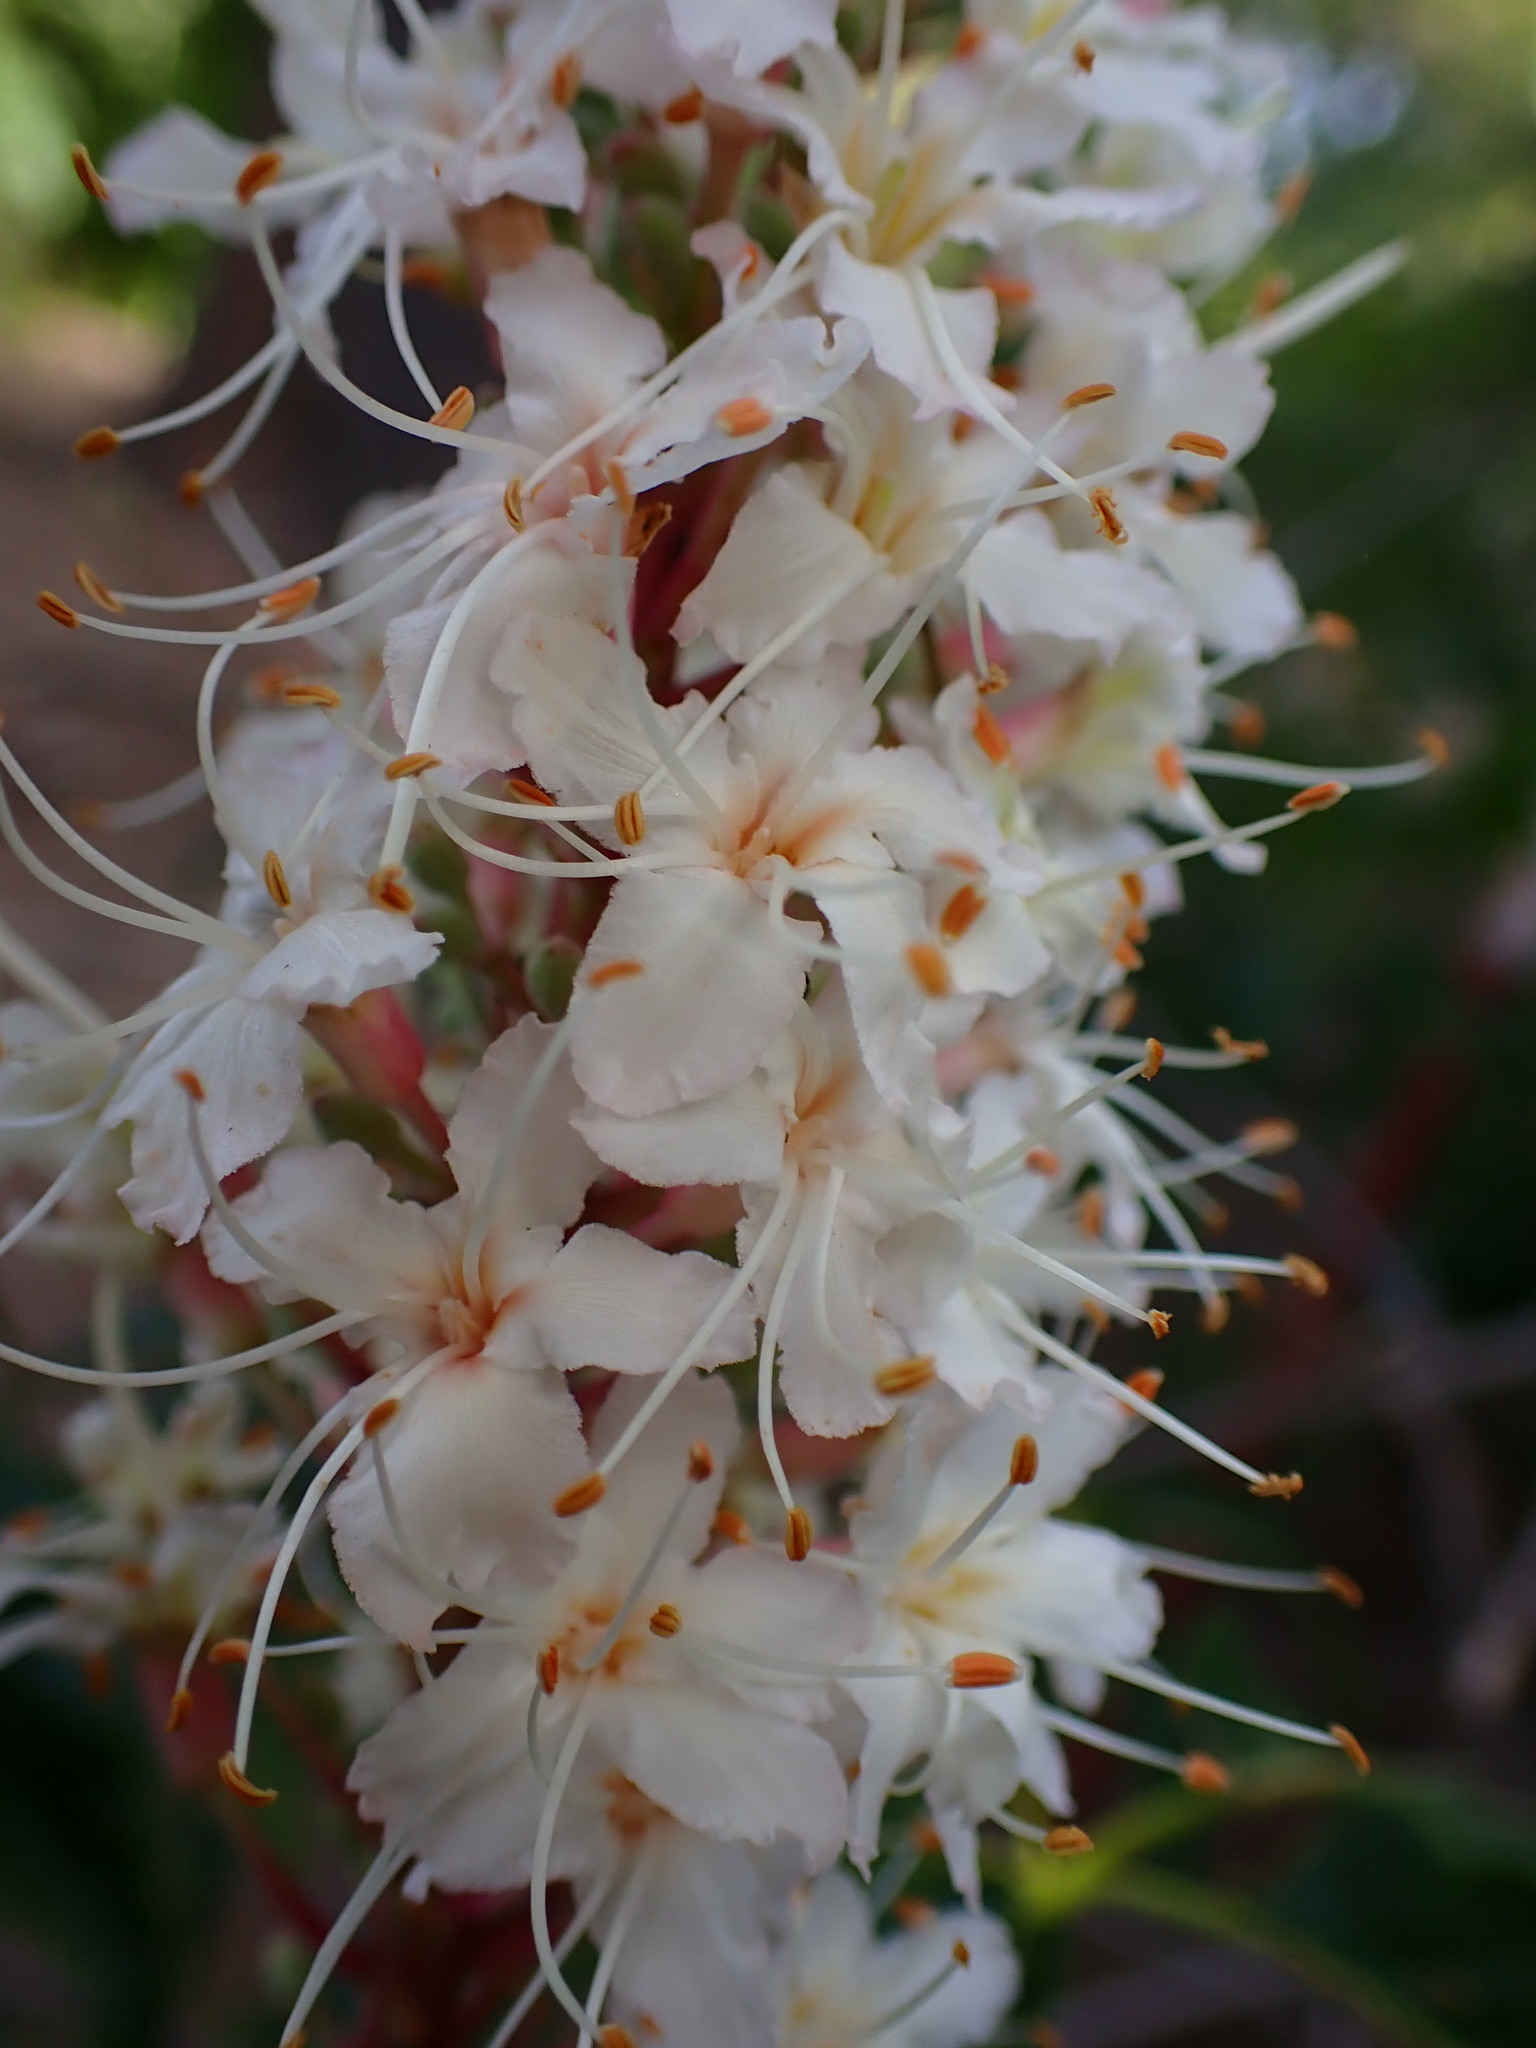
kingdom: Plantae
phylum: Tracheophyta
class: Magnoliopsida
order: Sapindales
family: Sapindaceae
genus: Aesculus
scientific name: Aesculus californica
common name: California buckeye
